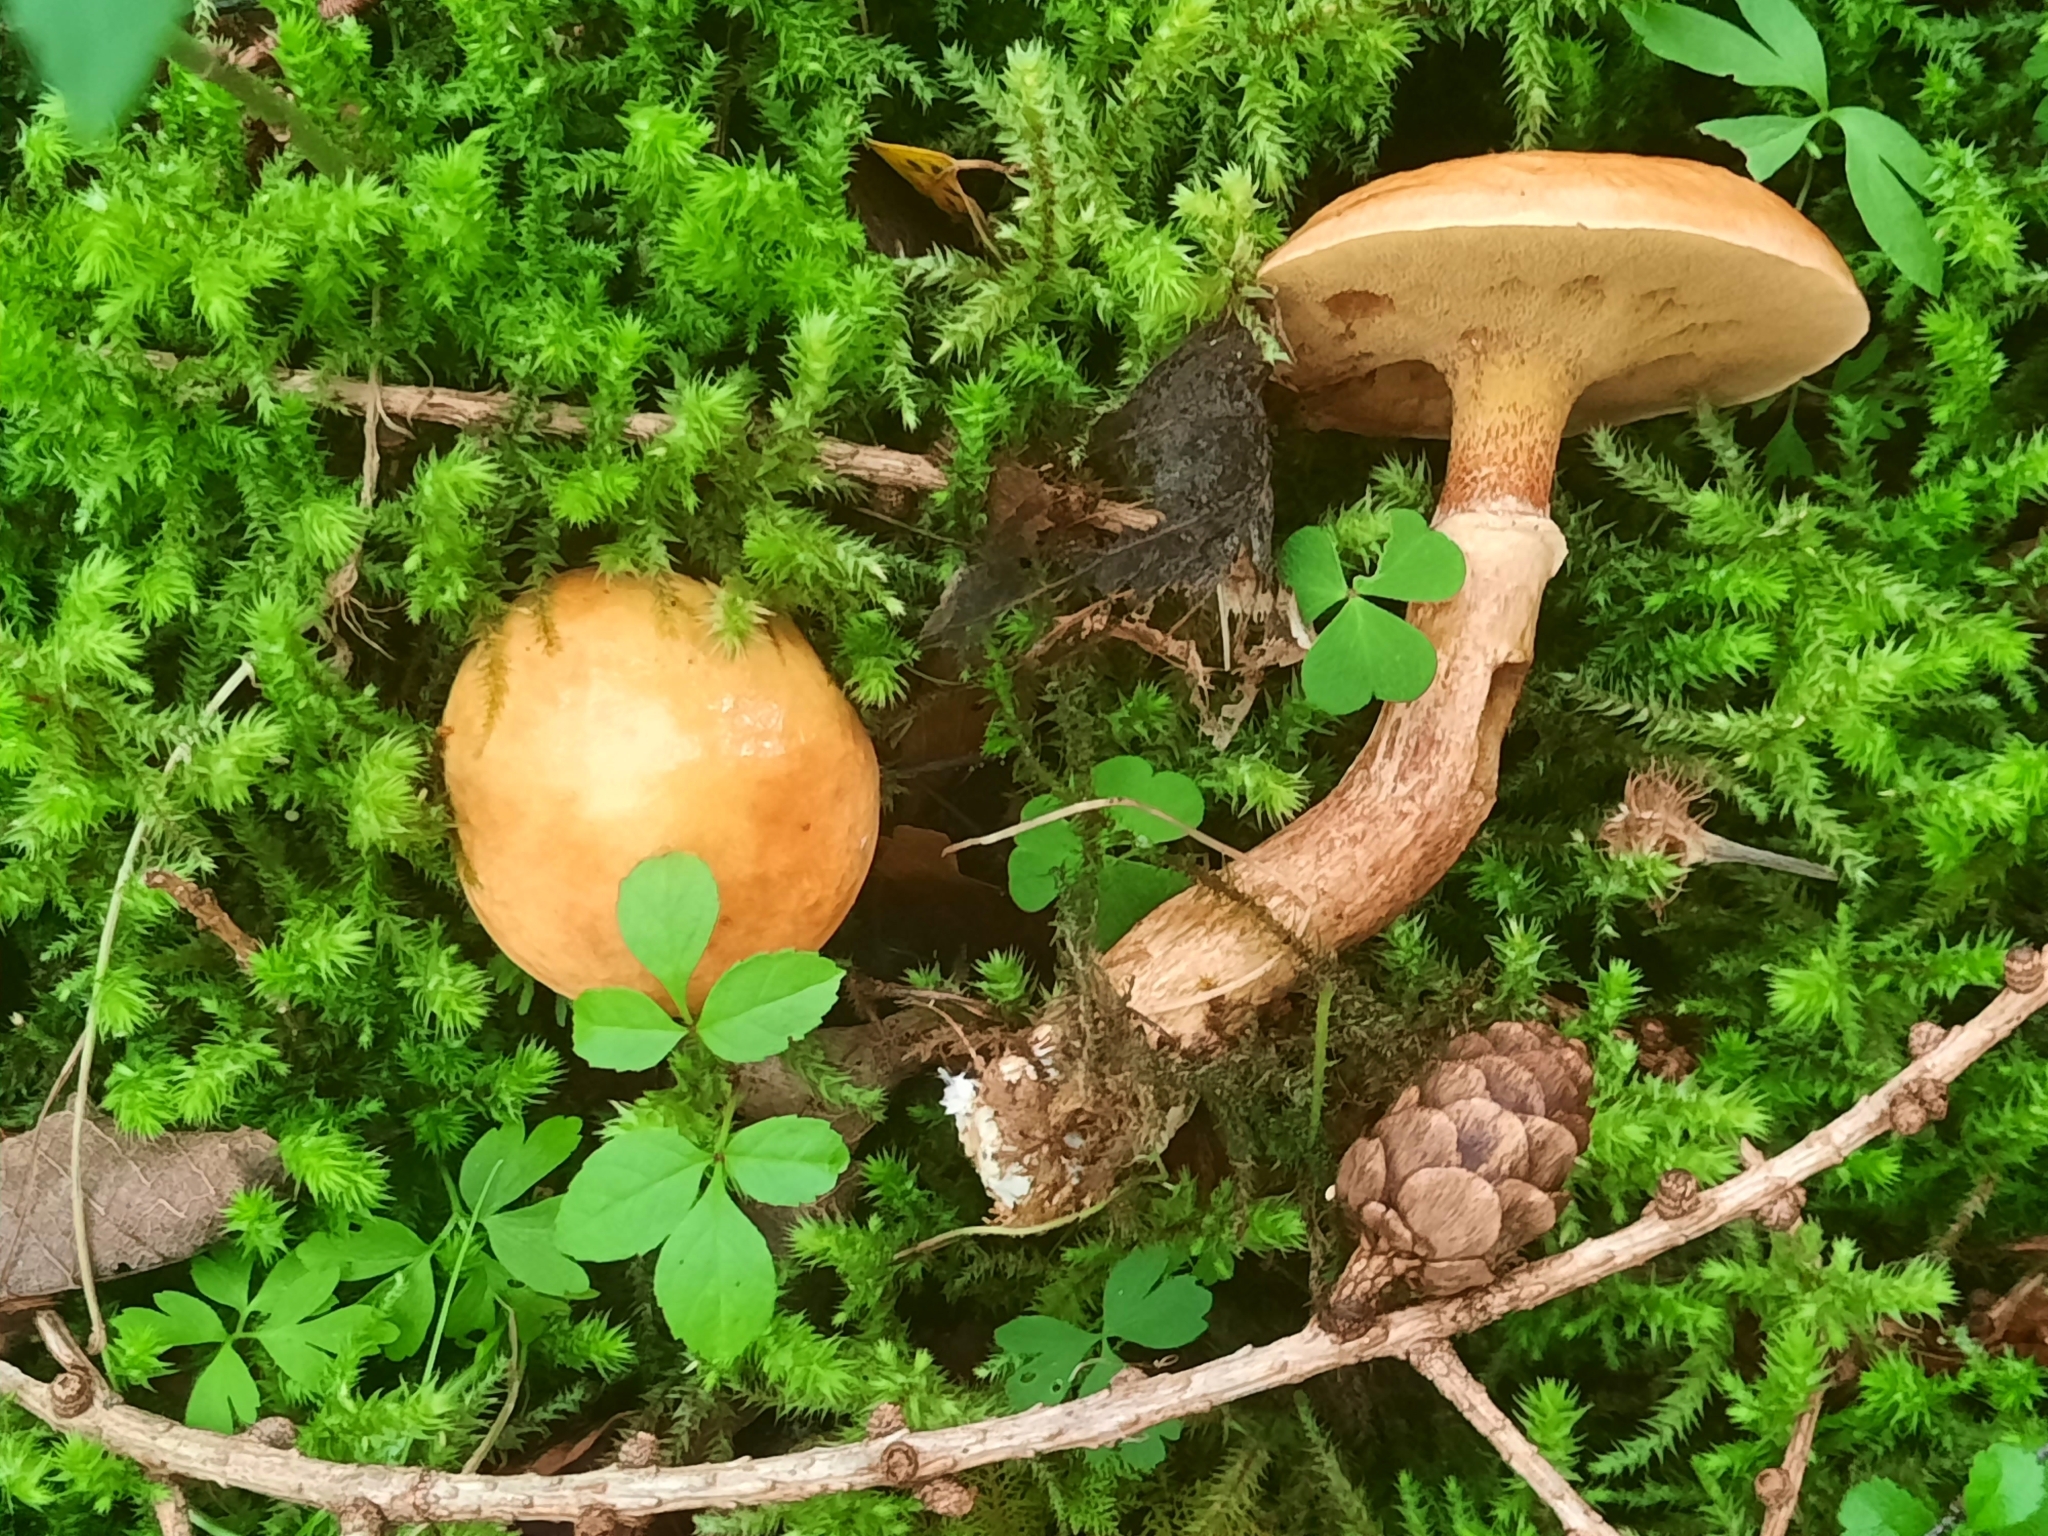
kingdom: Fungi
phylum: Basidiomycota
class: Agaricomycetes
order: Boletales
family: Suillaceae
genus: Suillus
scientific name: Suillus grevillei
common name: Larch bolete
